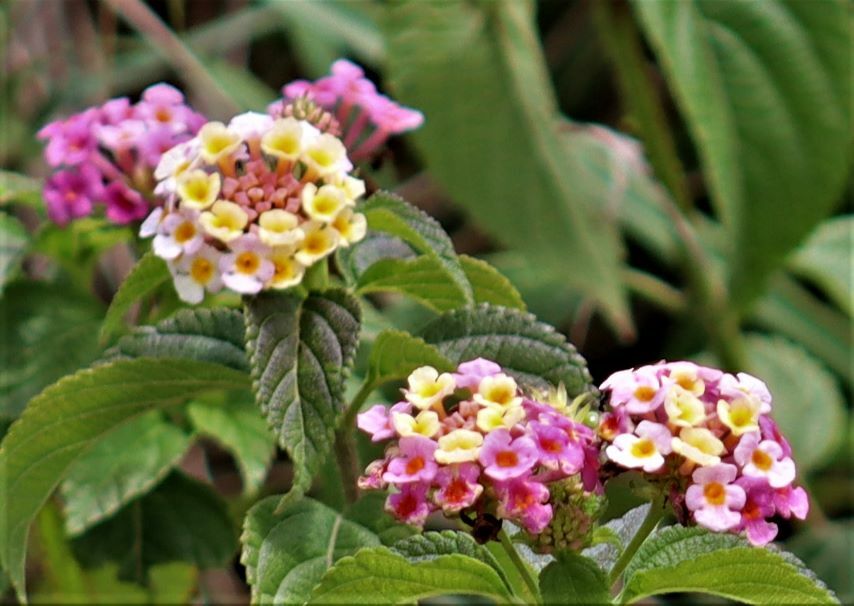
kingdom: Plantae
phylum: Tracheophyta
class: Magnoliopsida
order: Lamiales
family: Verbenaceae
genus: Lantana
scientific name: Lantana camara
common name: Lantana
